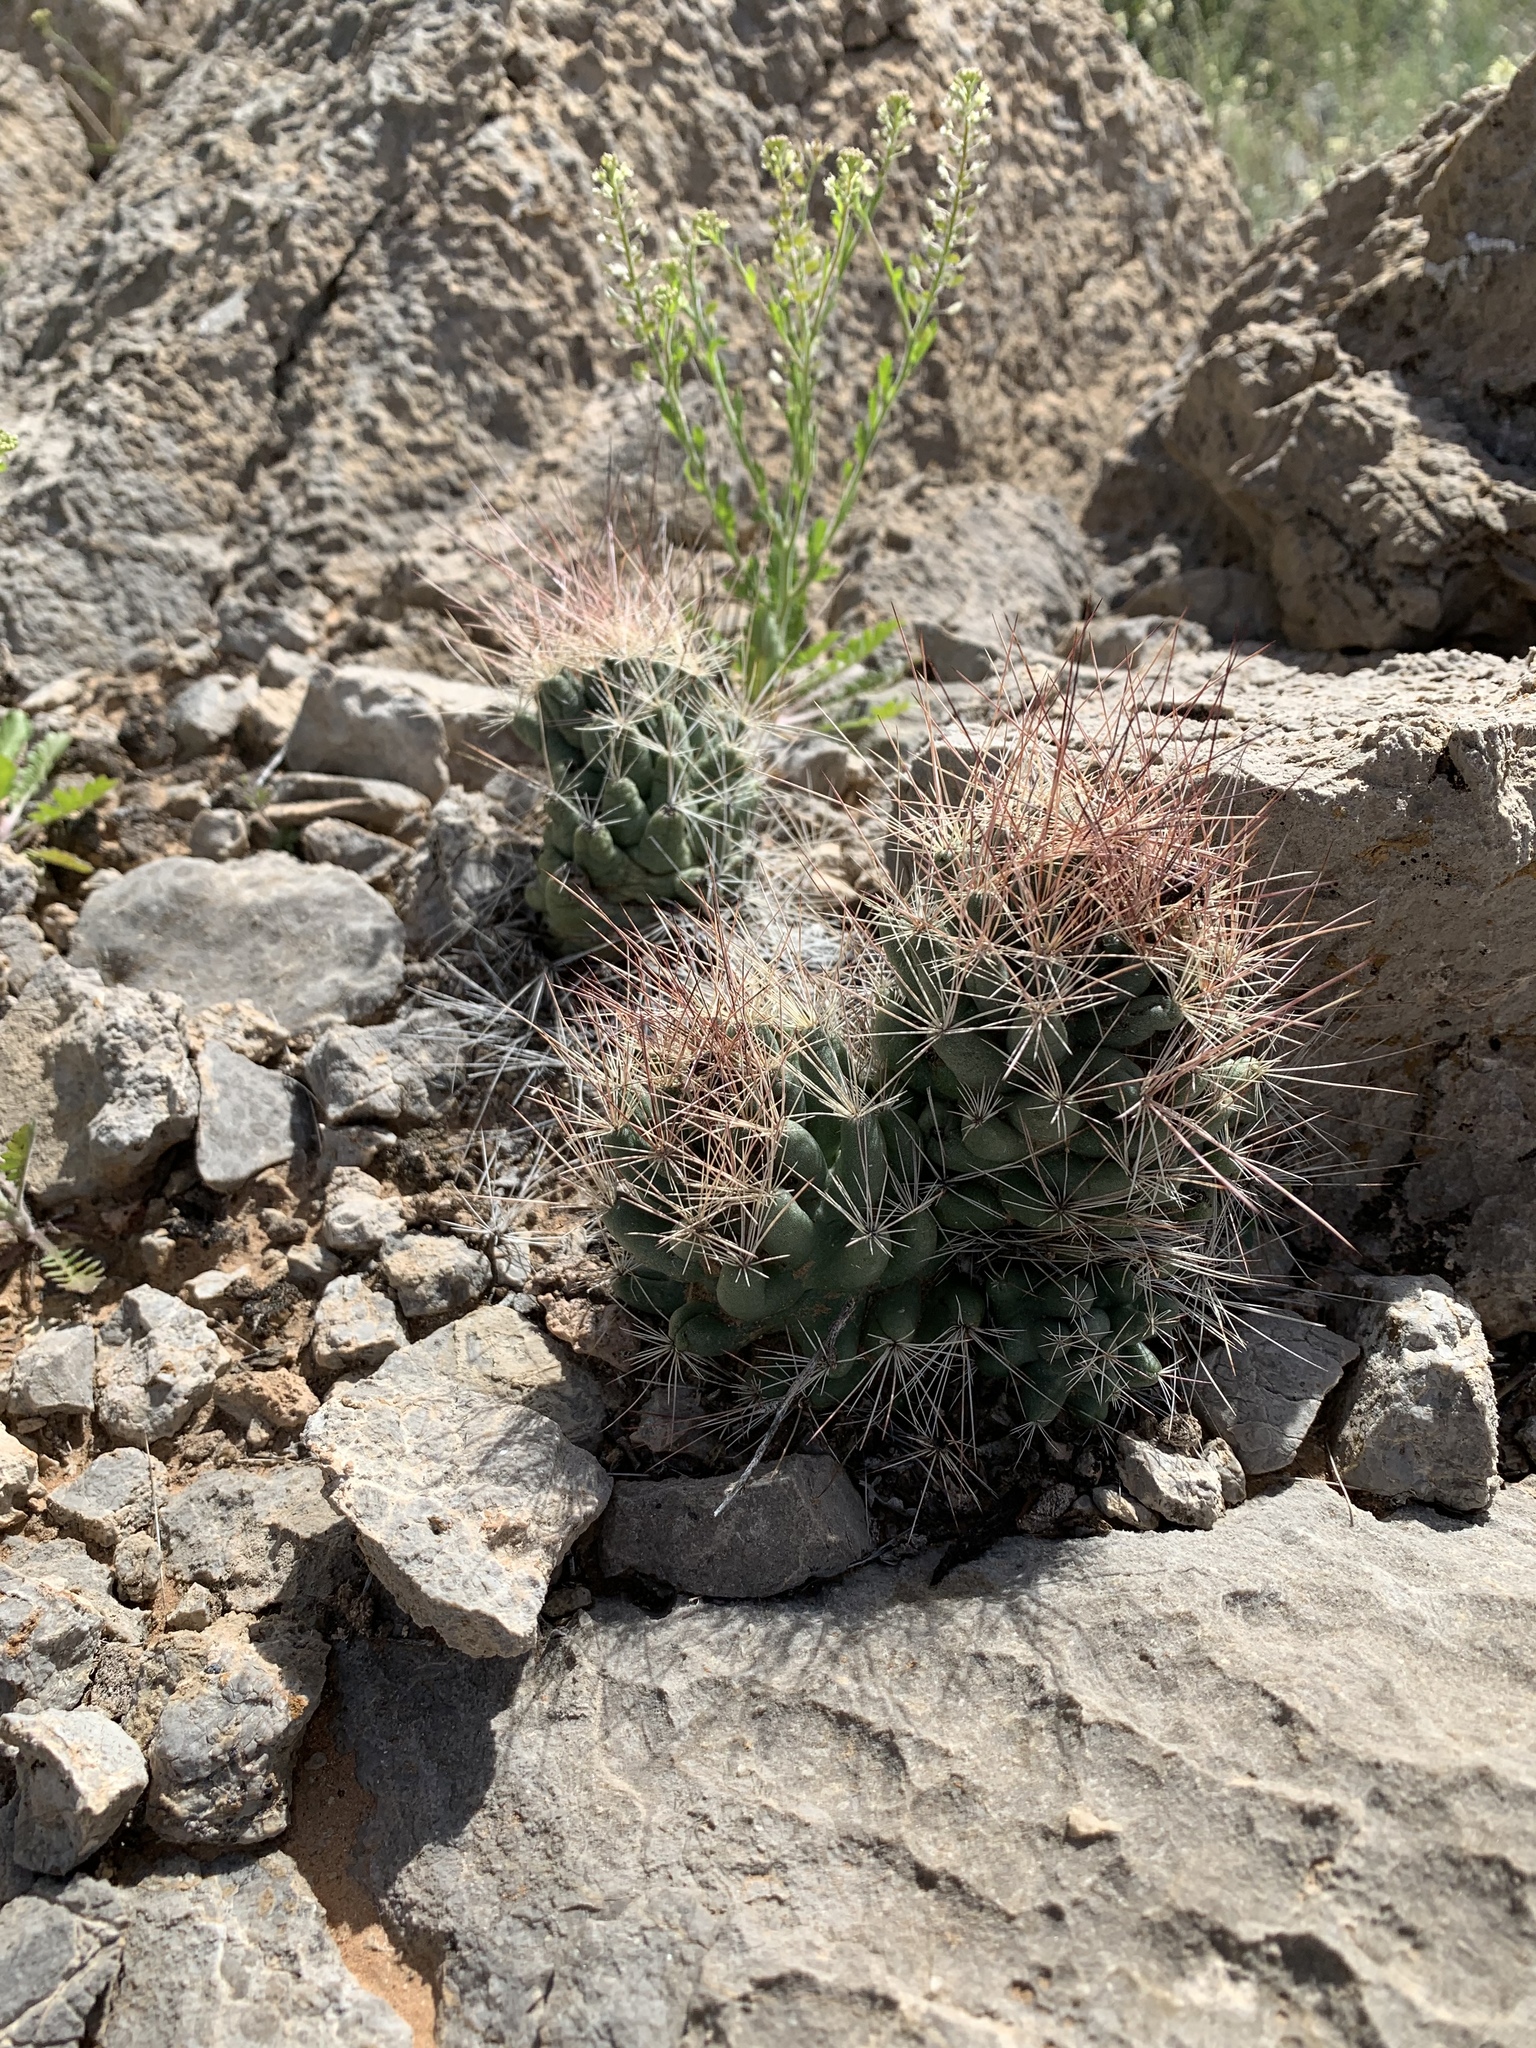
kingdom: Plantae
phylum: Tracheophyta
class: Magnoliopsida
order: Caryophyllales
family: Cactaceae
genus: Coryphantha
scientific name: Coryphantha macromeris
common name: Nipple beehive cactus
